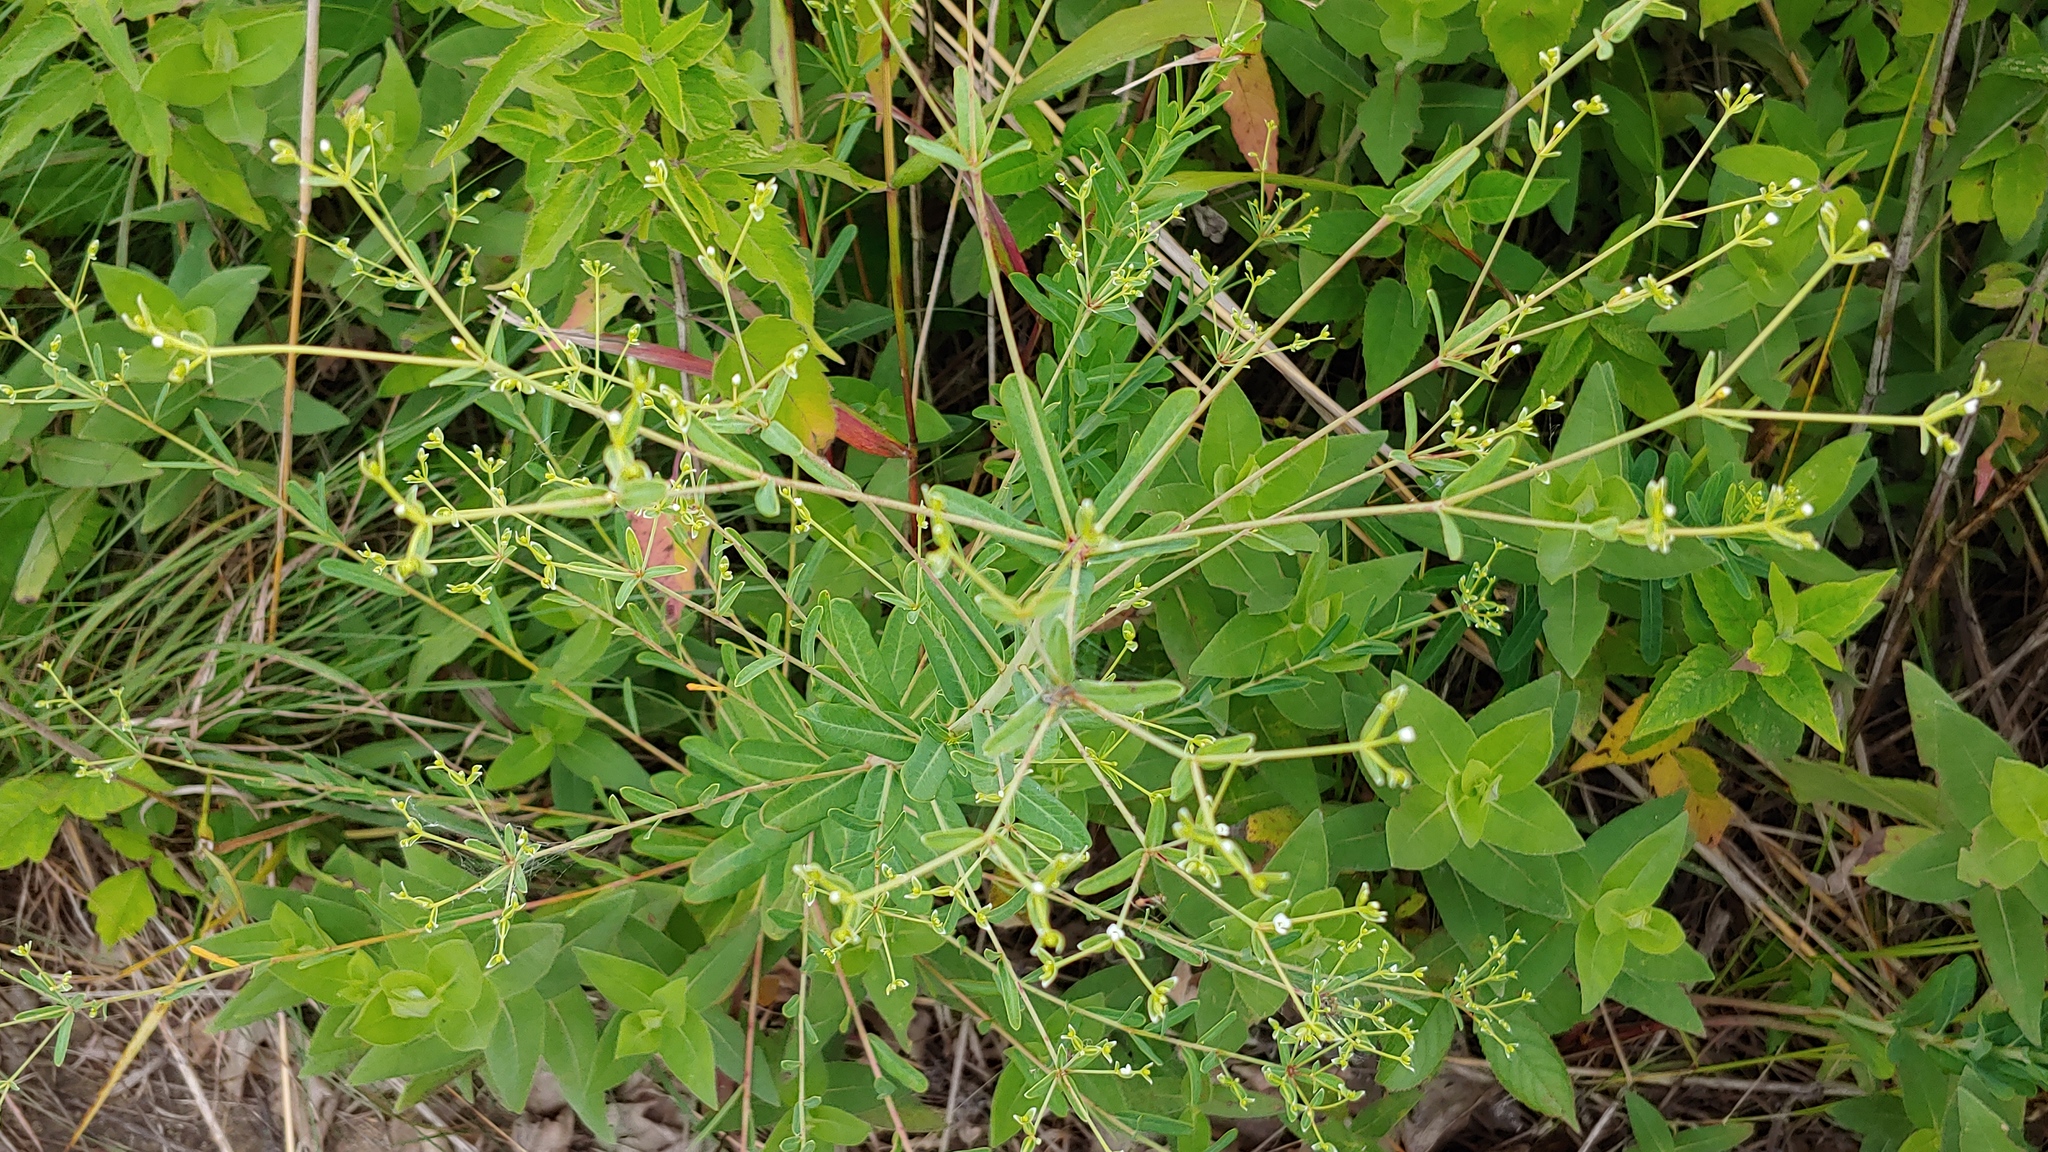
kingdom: Plantae
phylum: Tracheophyta
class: Magnoliopsida
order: Malpighiales
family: Euphorbiaceae
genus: Euphorbia
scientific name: Euphorbia corollata
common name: Flowering spurge
